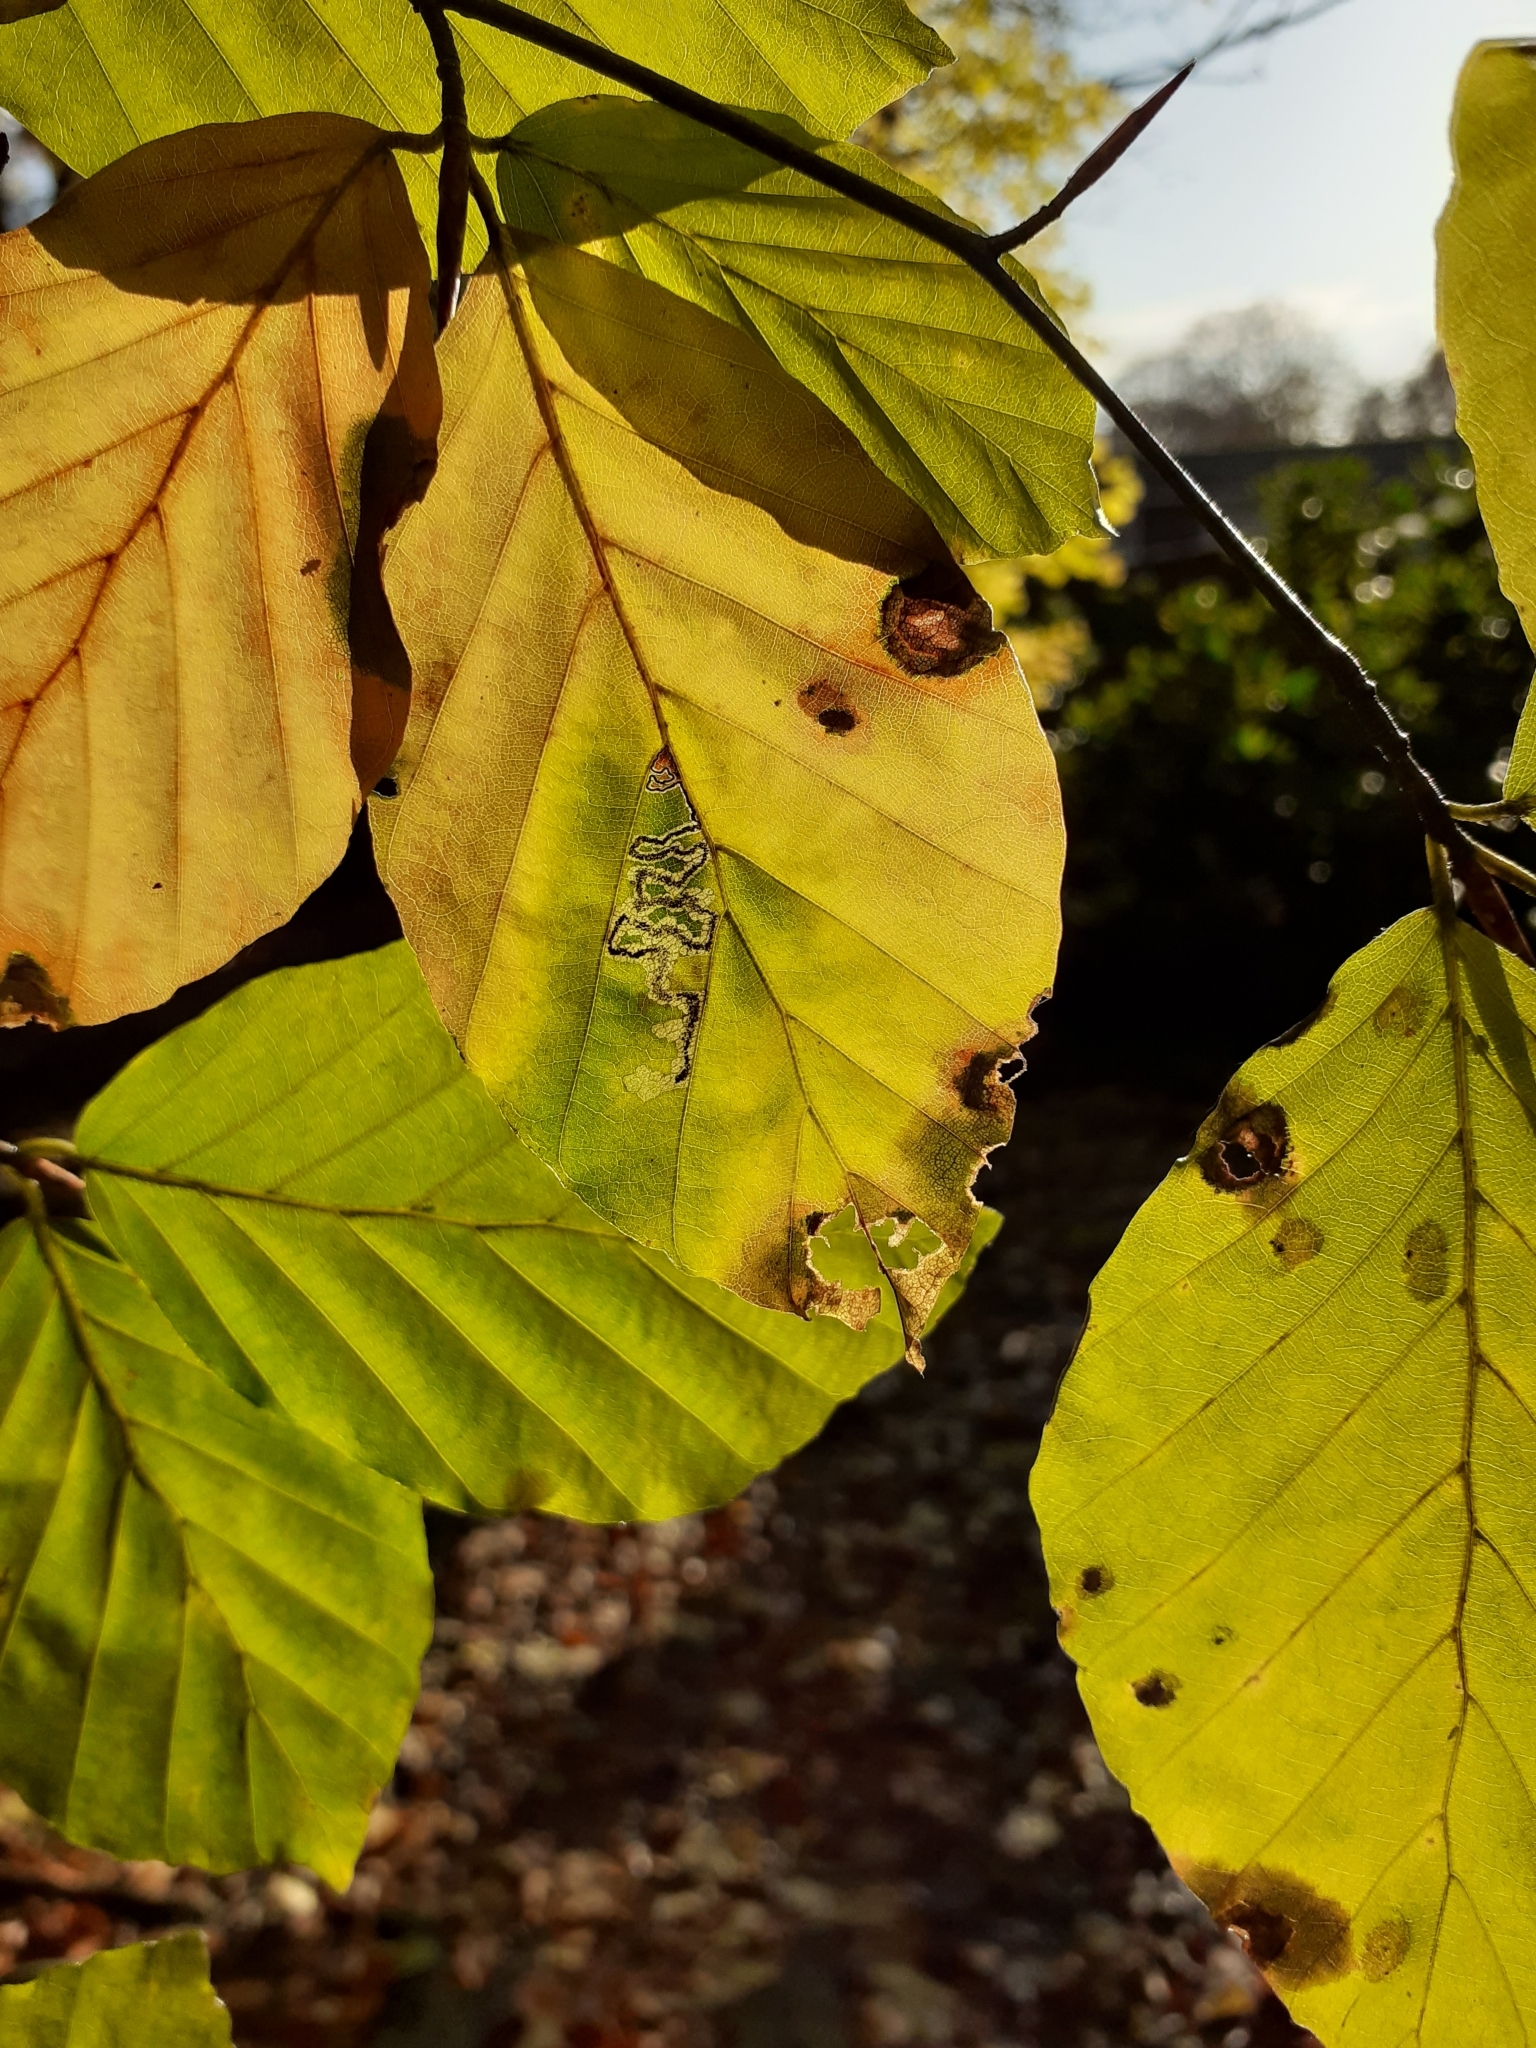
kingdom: Animalia
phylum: Arthropoda
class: Insecta
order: Lepidoptera
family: Nepticulidae
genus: Stigmella
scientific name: Stigmella tityrella
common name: Small beech pigmy
